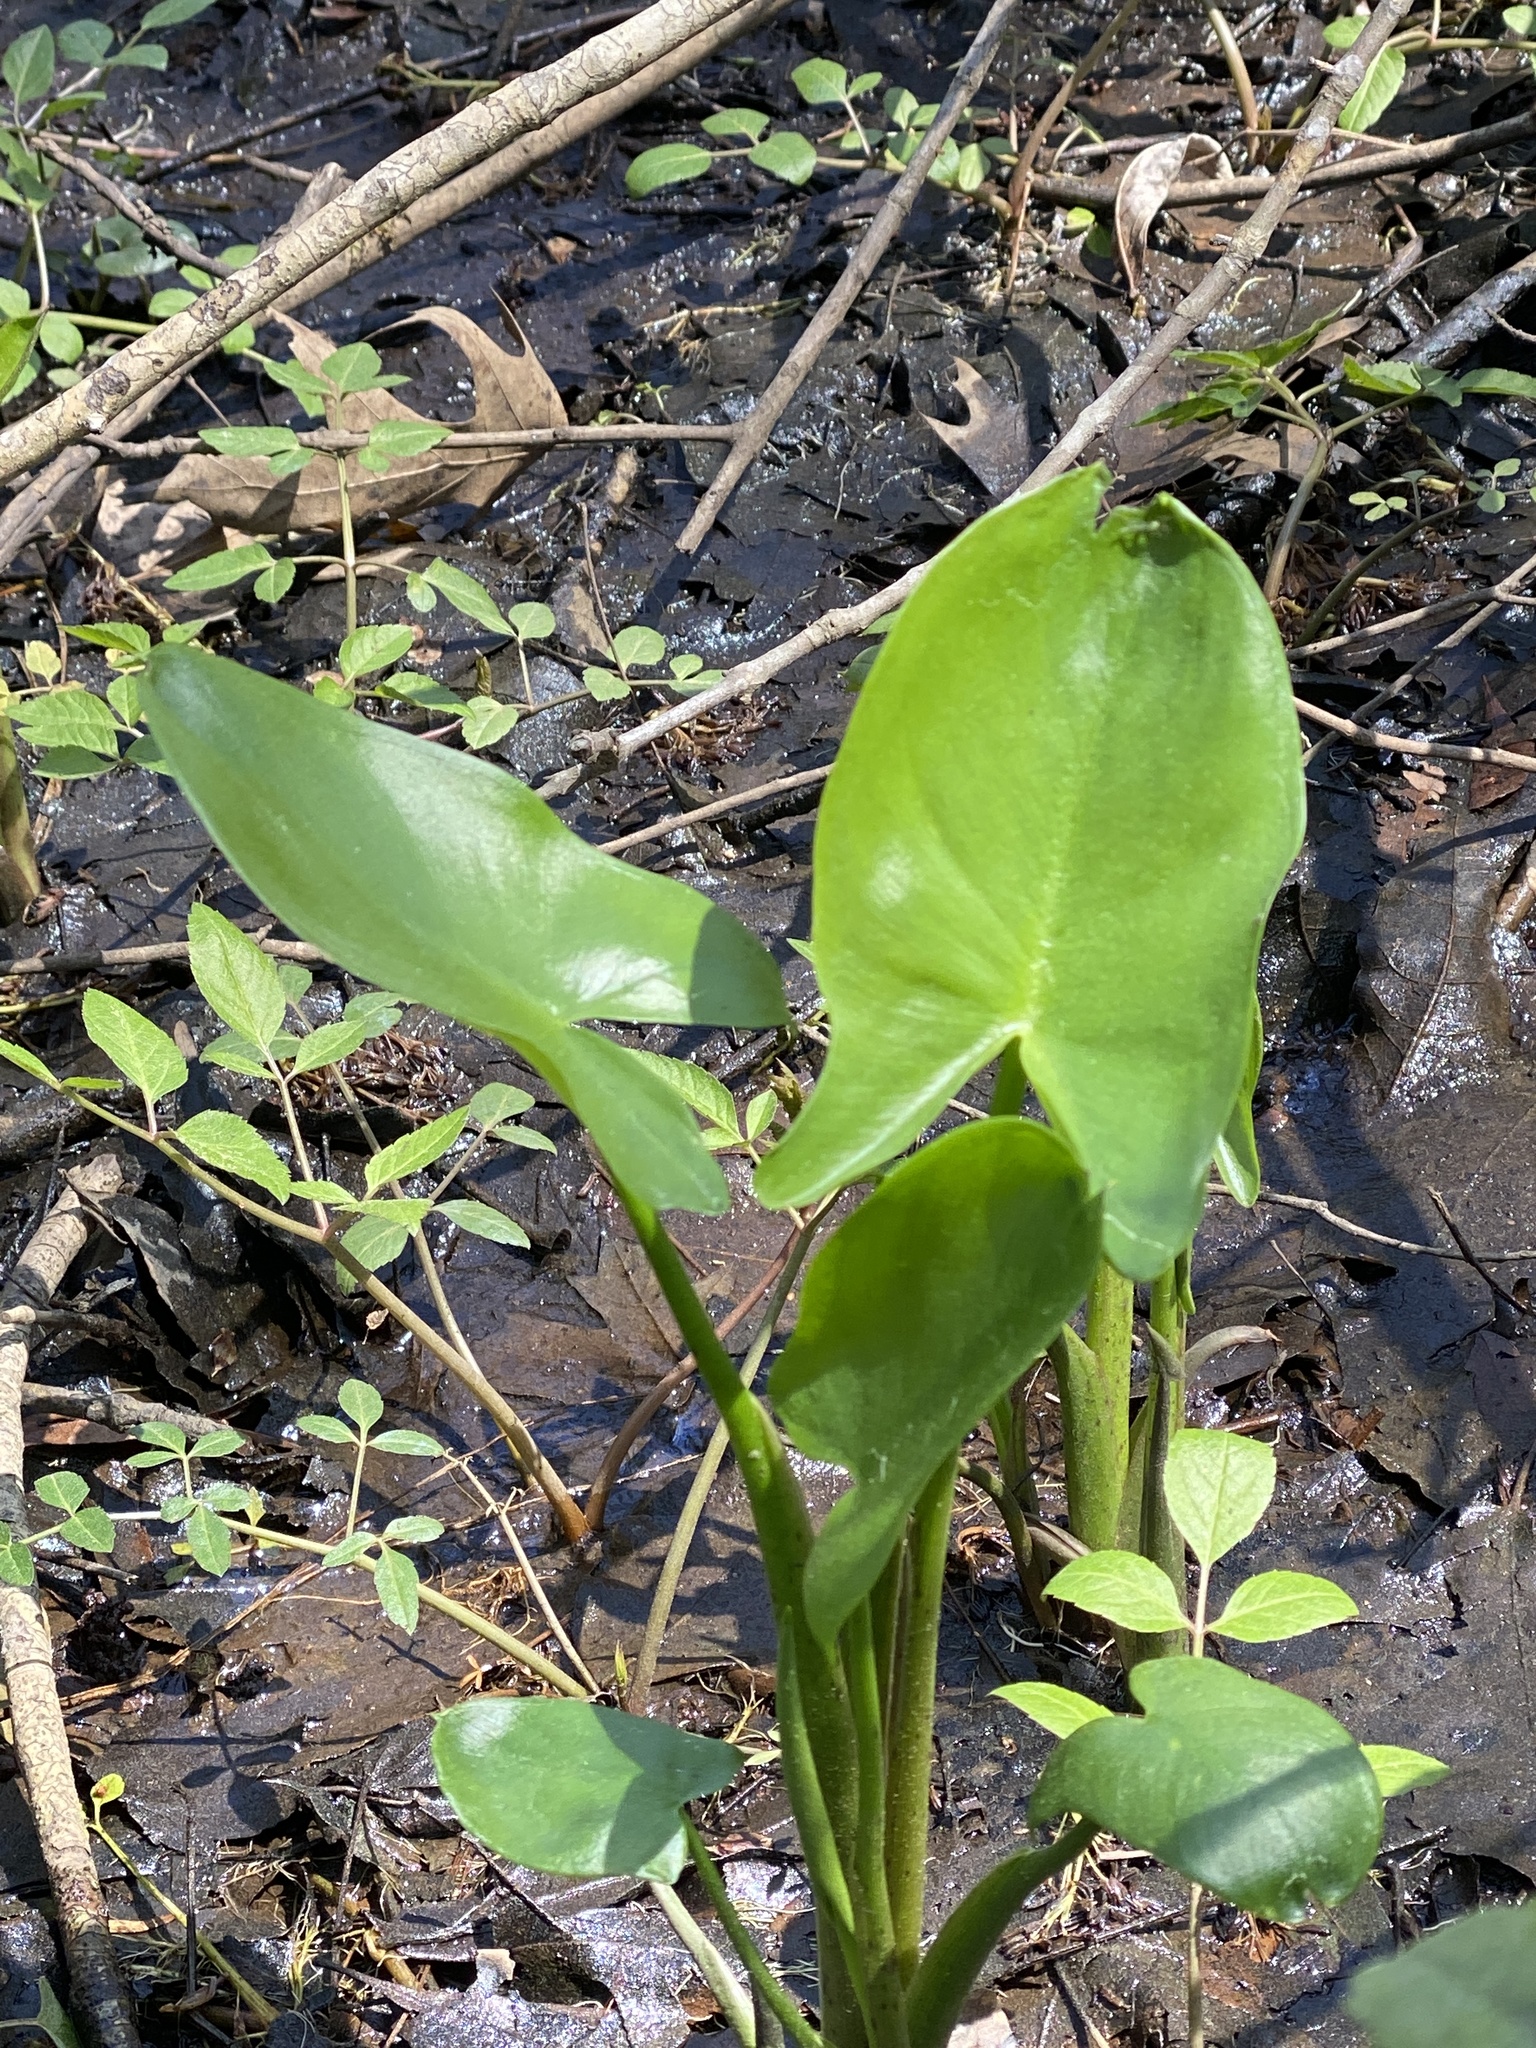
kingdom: Plantae
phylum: Tracheophyta
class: Liliopsida
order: Alismatales
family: Araceae
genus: Peltandra
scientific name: Peltandra virginica
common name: Arrow arum
